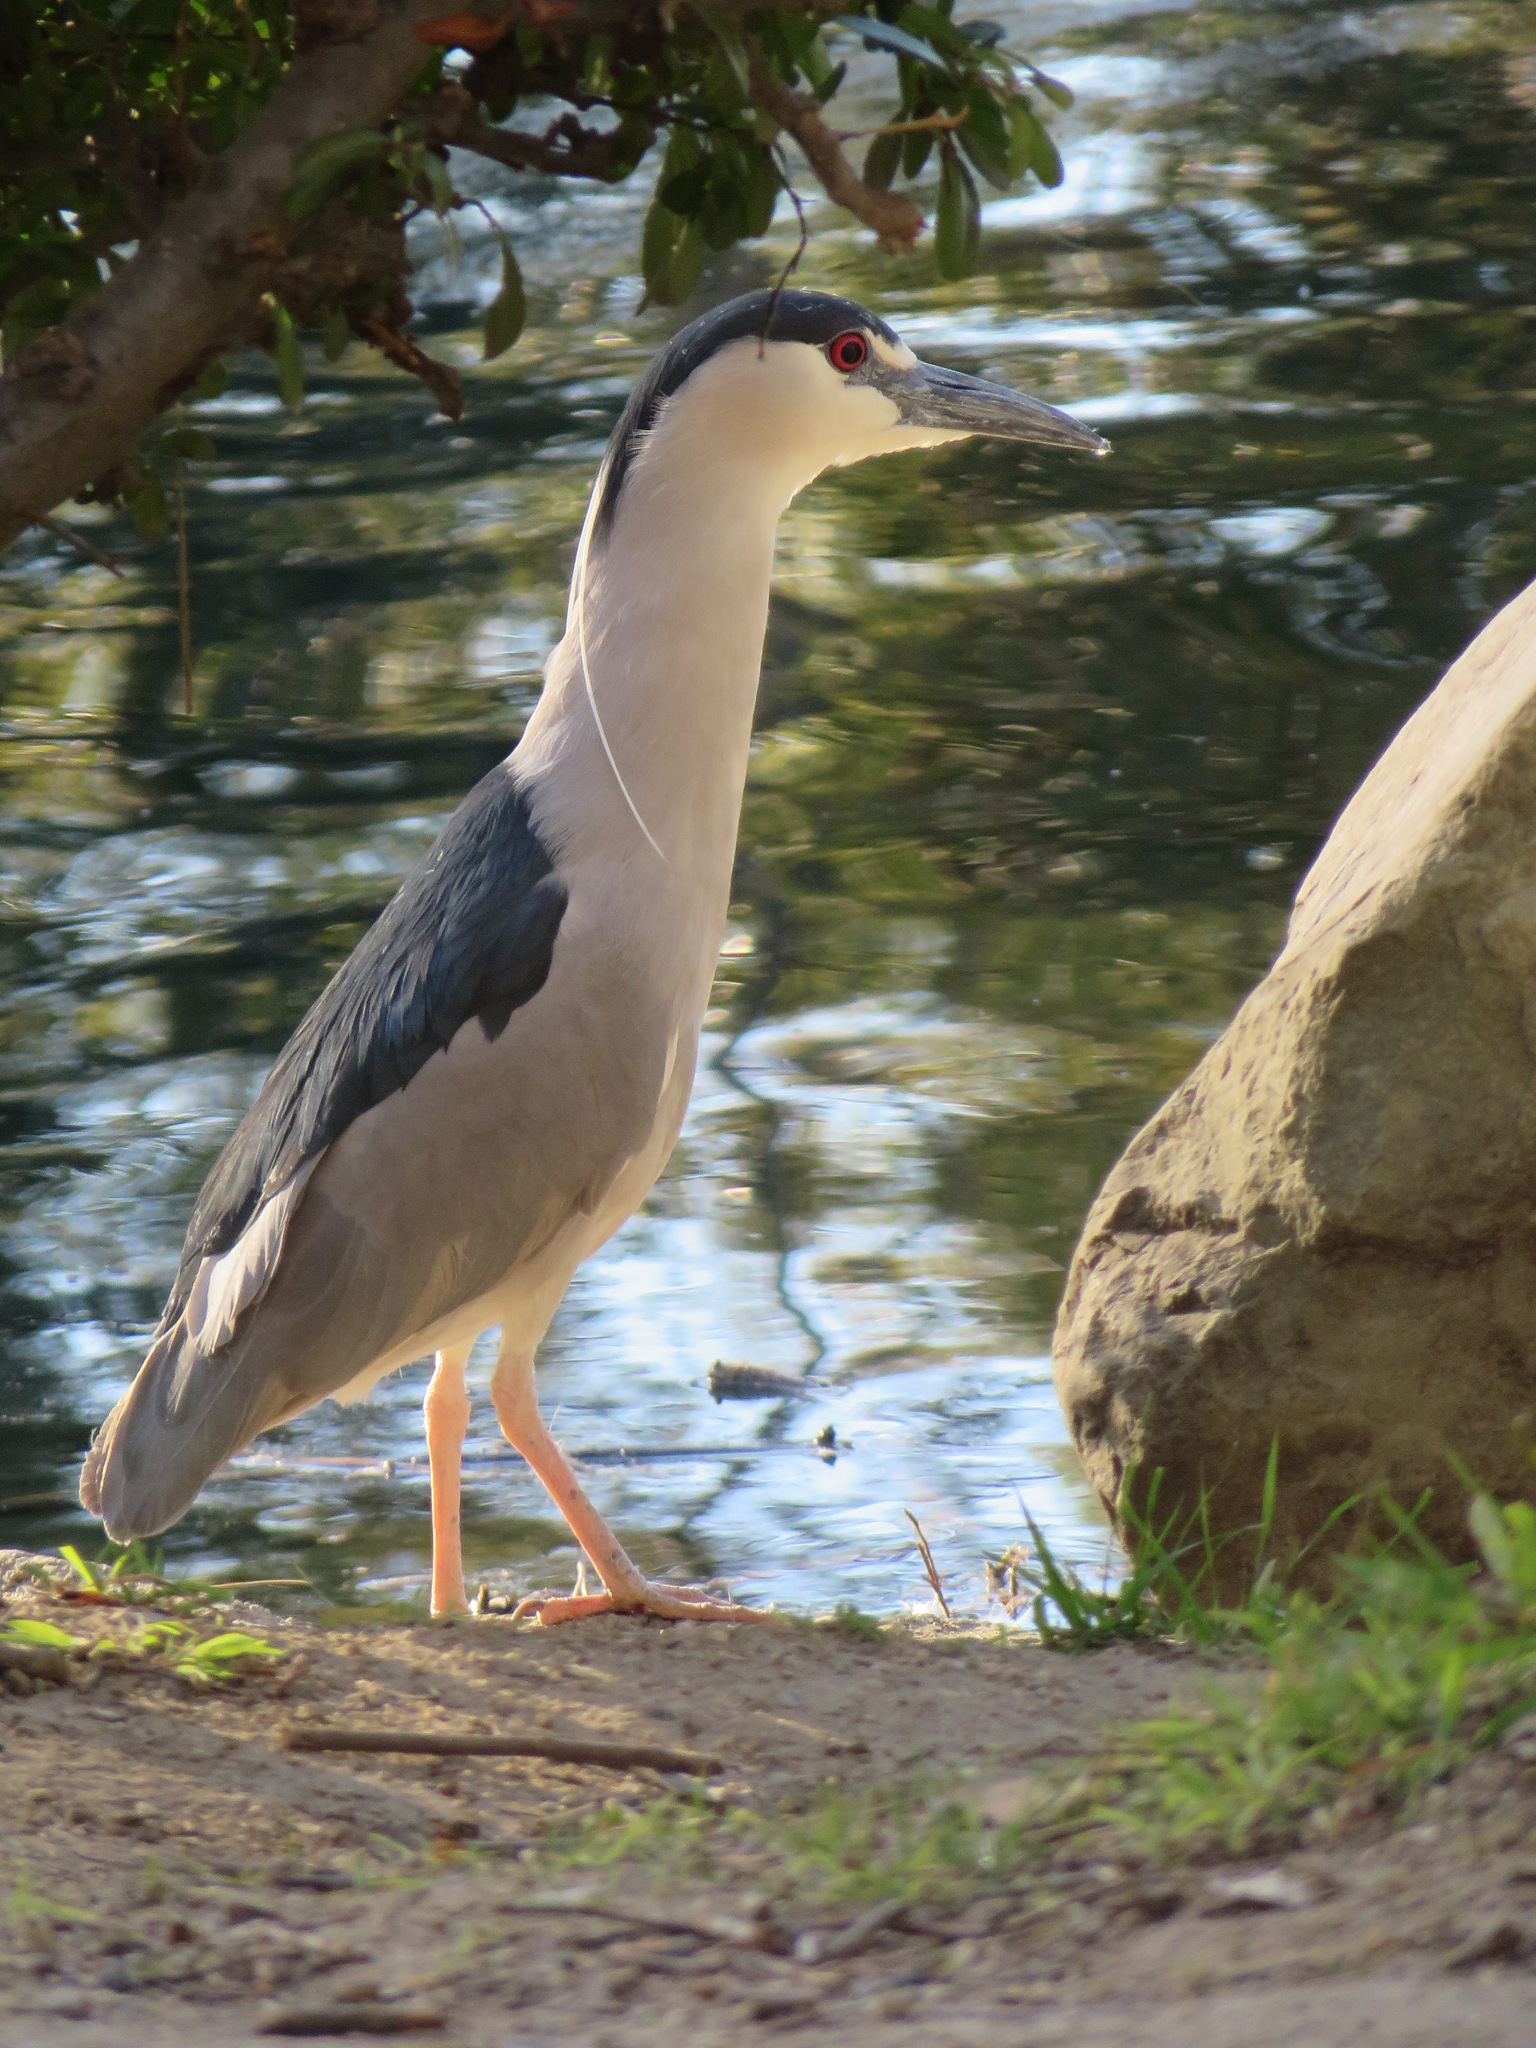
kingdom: Animalia
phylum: Chordata
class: Aves
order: Pelecaniformes
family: Ardeidae
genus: Nycticorax
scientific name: Nycticorax nycticorax
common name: Black-crowned night heron
